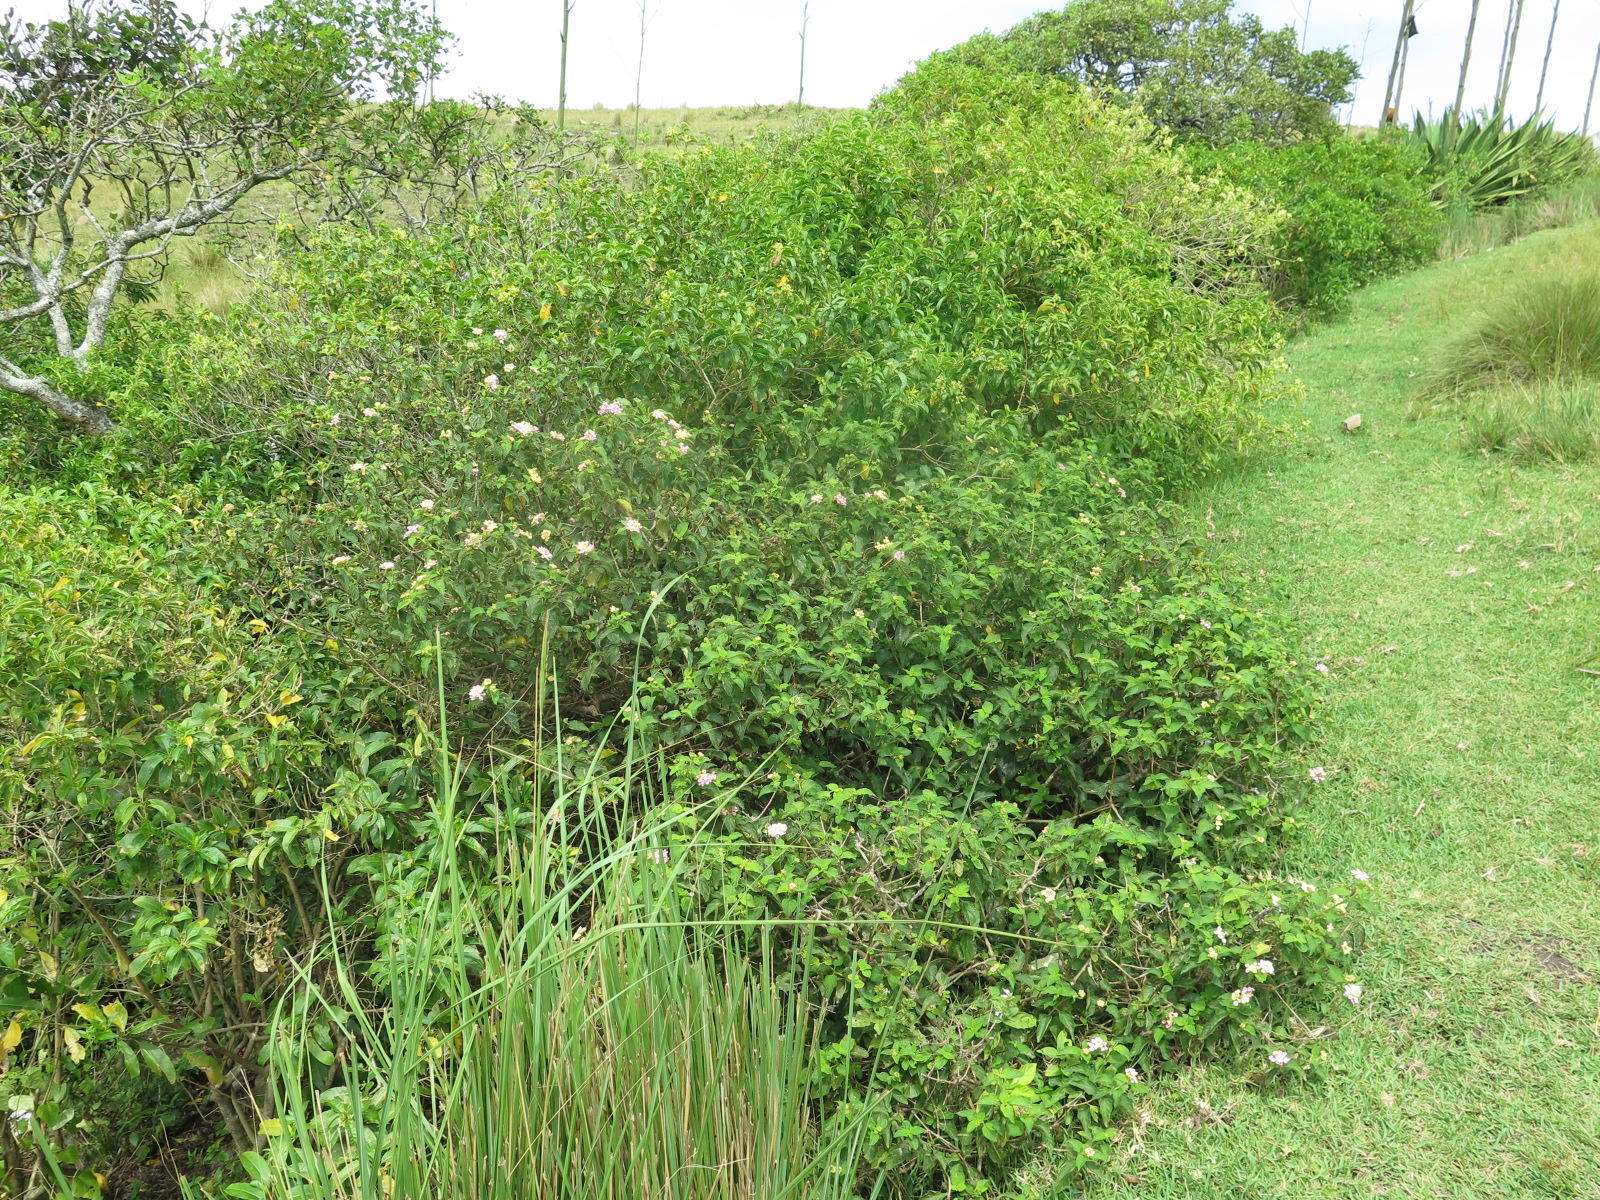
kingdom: Plantae
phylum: Tracheophyta
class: Magnoliopsida
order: Lamiales
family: Verbenaceae
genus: Lantana
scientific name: Lantana camara
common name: Lantana
